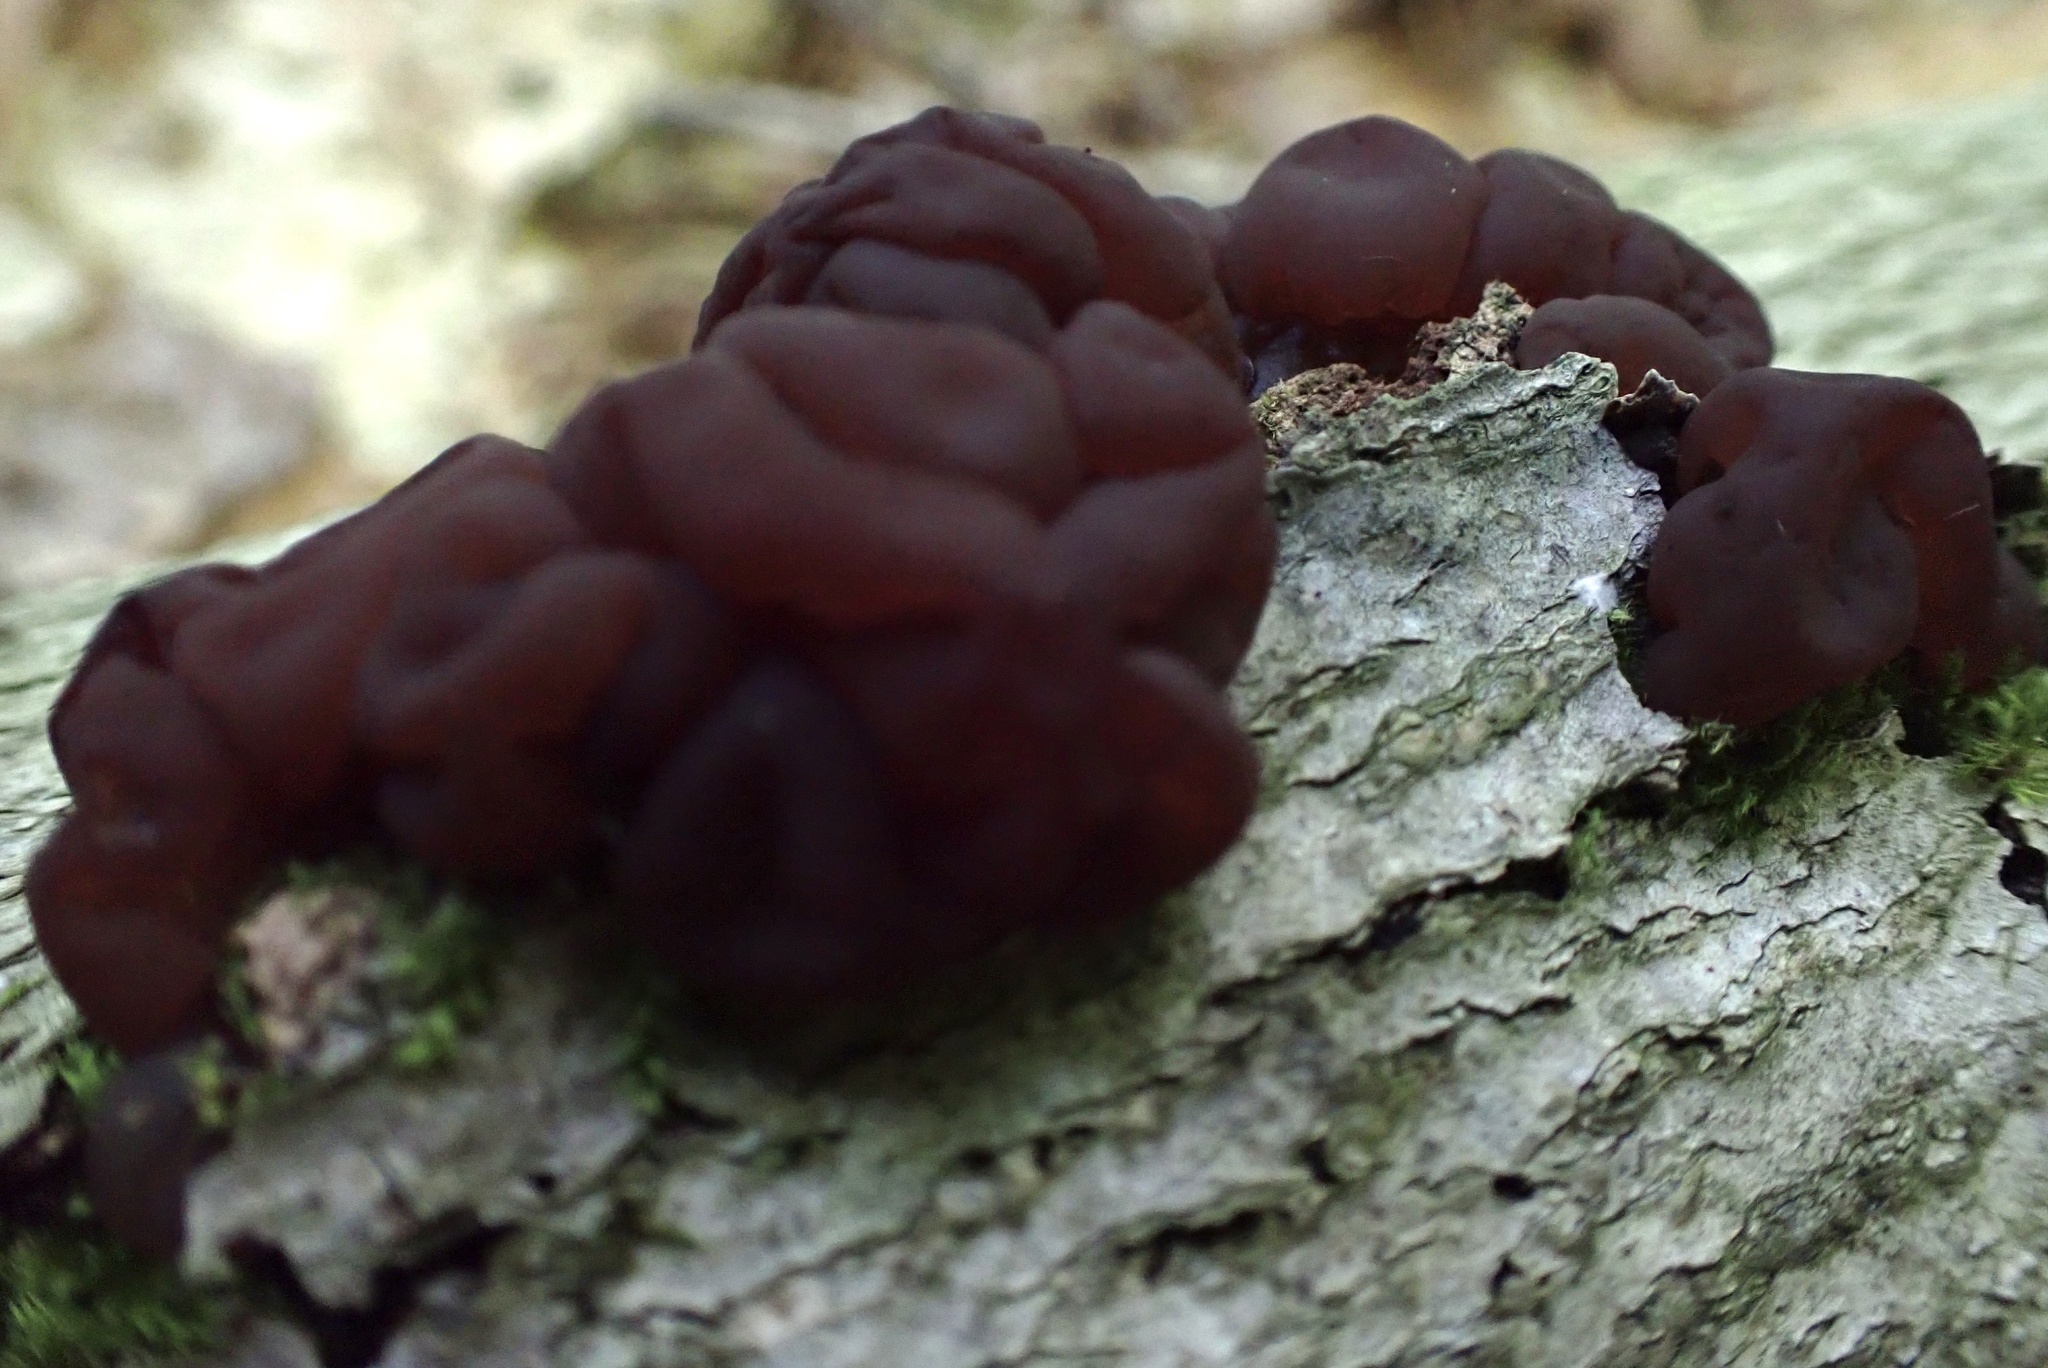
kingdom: Fungi
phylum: Ascomycota
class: Leotiomycetes
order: Helotiales
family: Gelatinodiscaceae
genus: Ascotremella
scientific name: Ascotremella faginea
